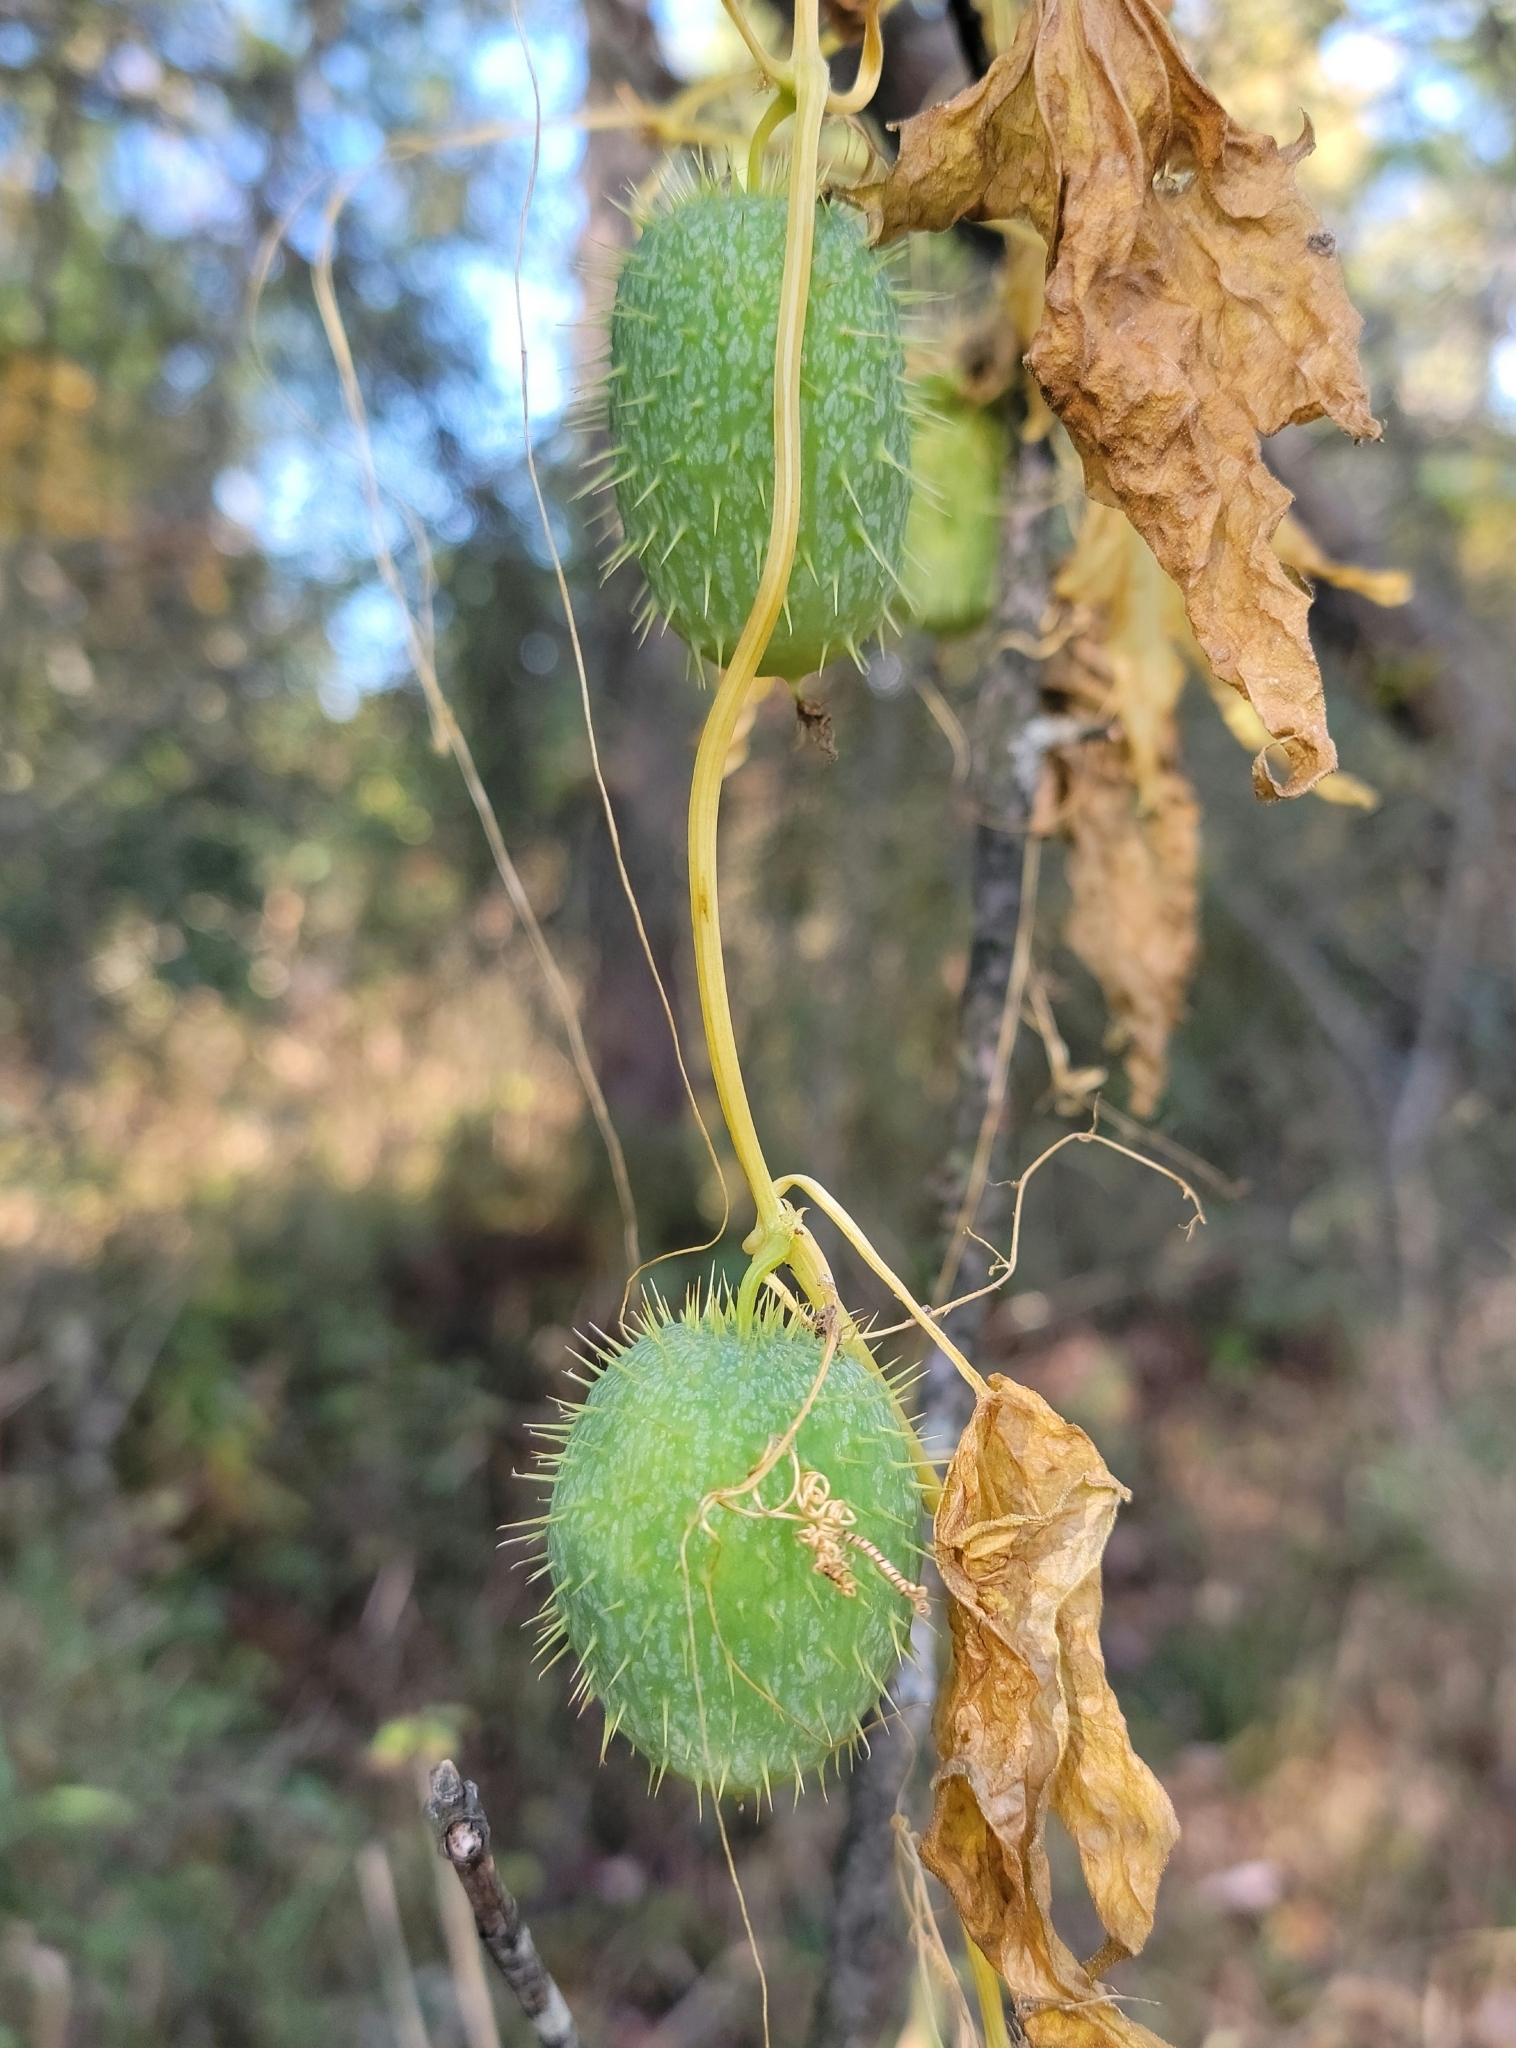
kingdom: Plantae
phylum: Tracheophyta
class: Magnoliopsida
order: Cucurbitales
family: Cucurbitaceae
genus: Echinocystis
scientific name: Echinocystis lobata
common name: Wild cucumber
